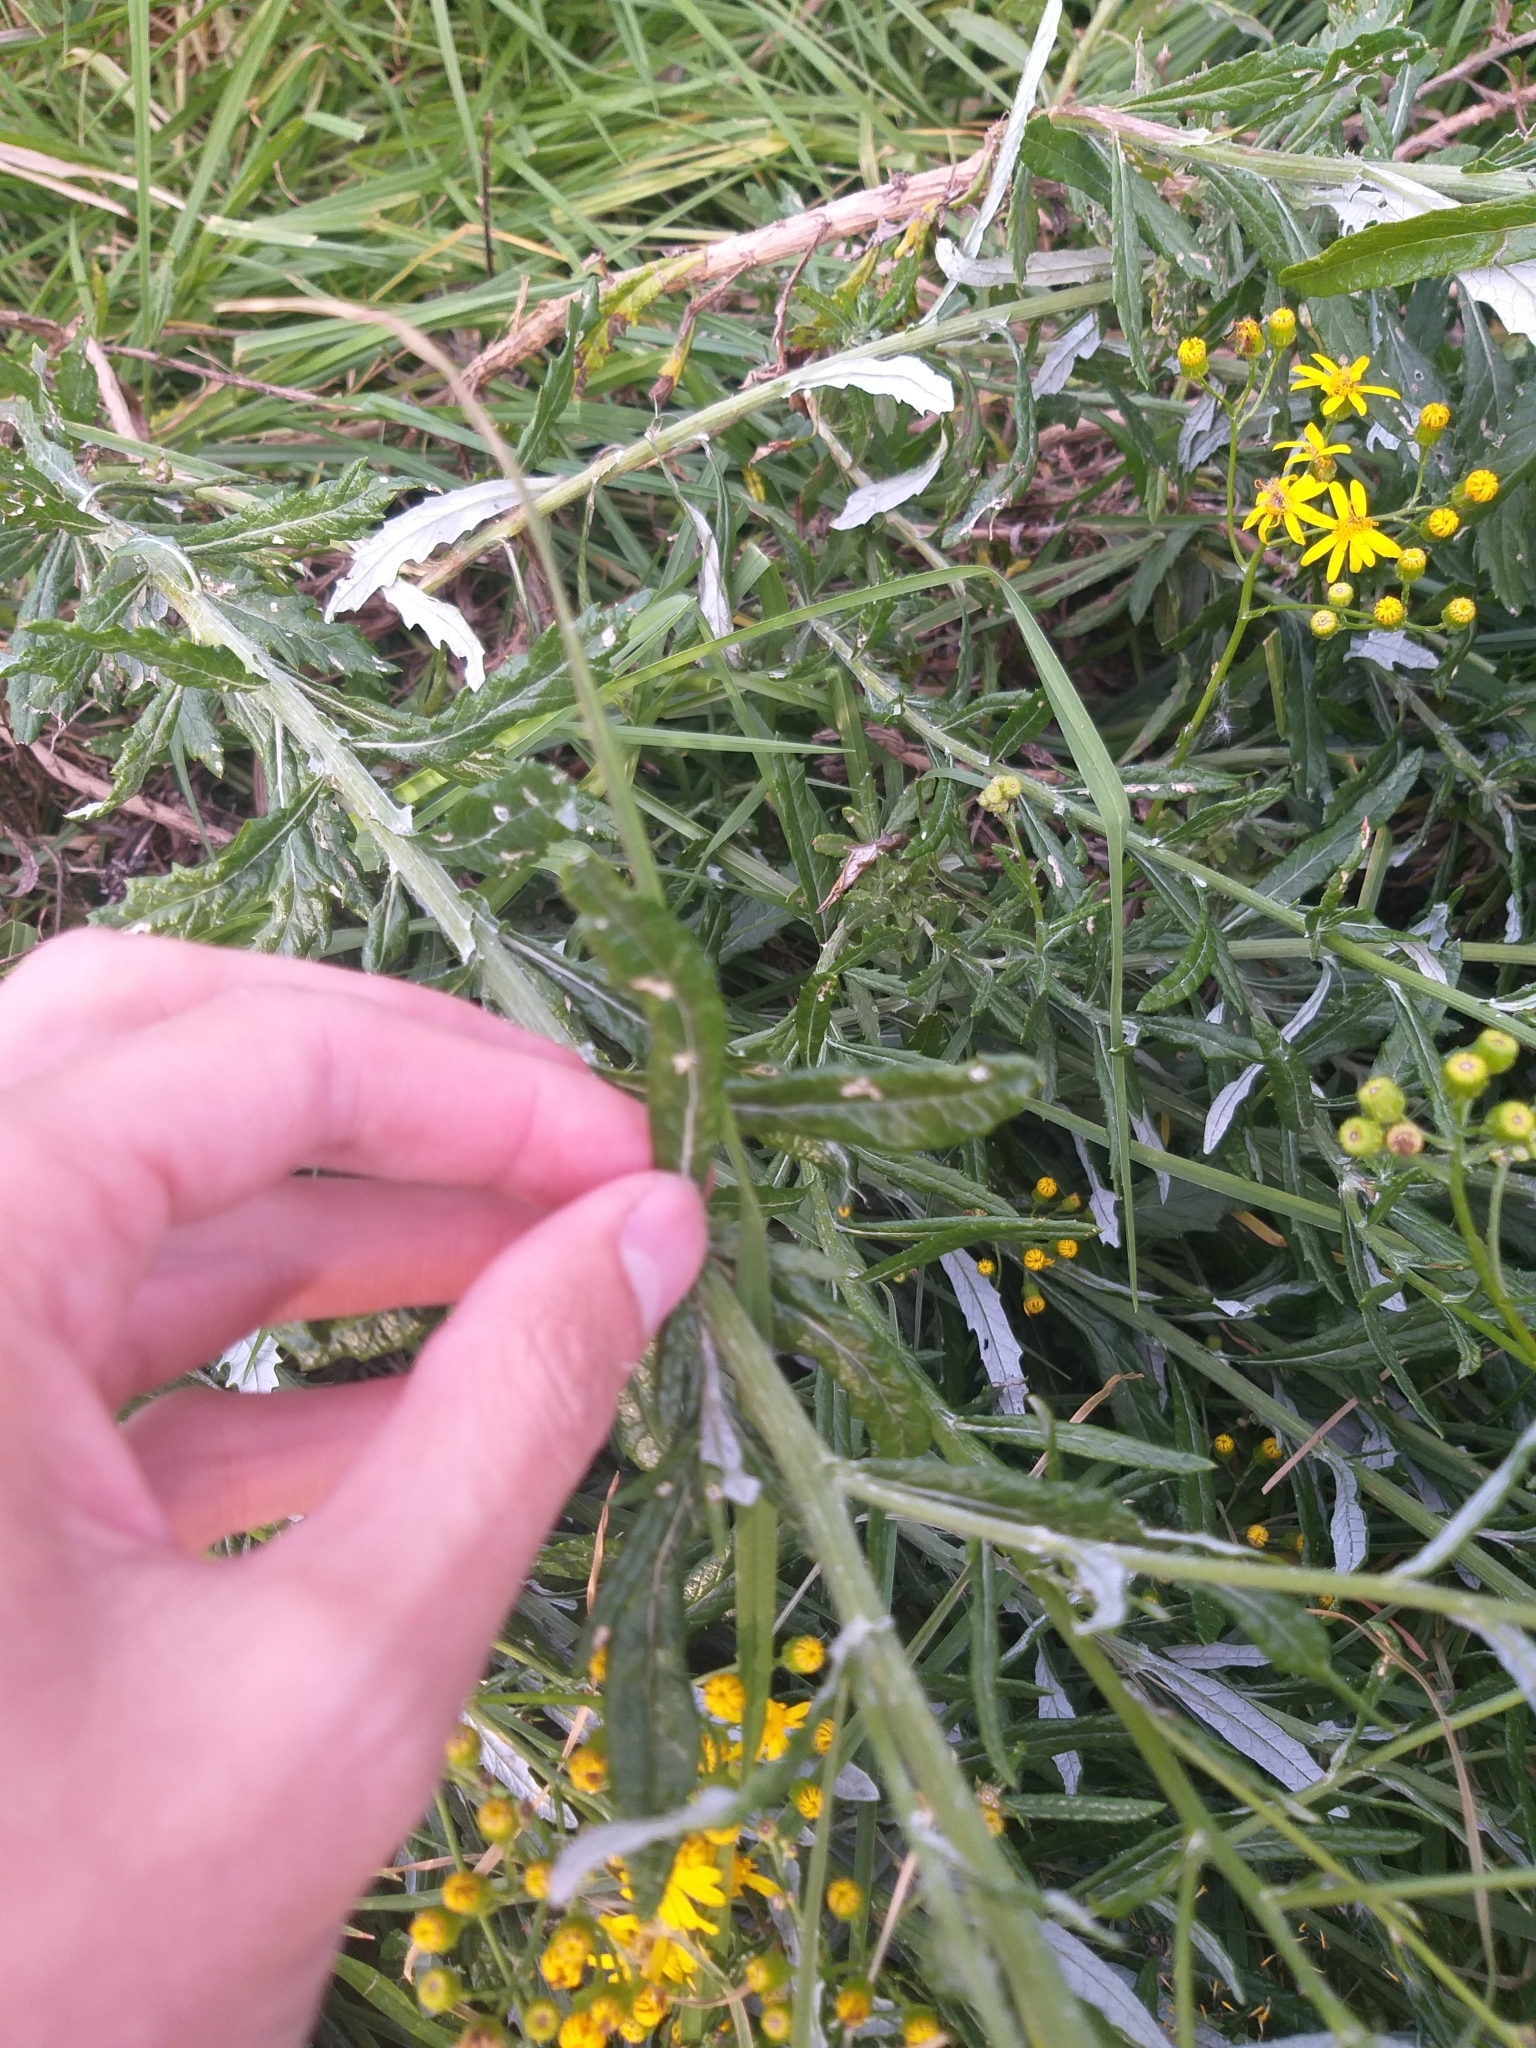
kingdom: Plantae
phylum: Tracheophyta
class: Magnoliopsida
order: Asterales
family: Asteraceae
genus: Senecio
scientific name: Senecio pterophorus
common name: Shoddy ragwort
